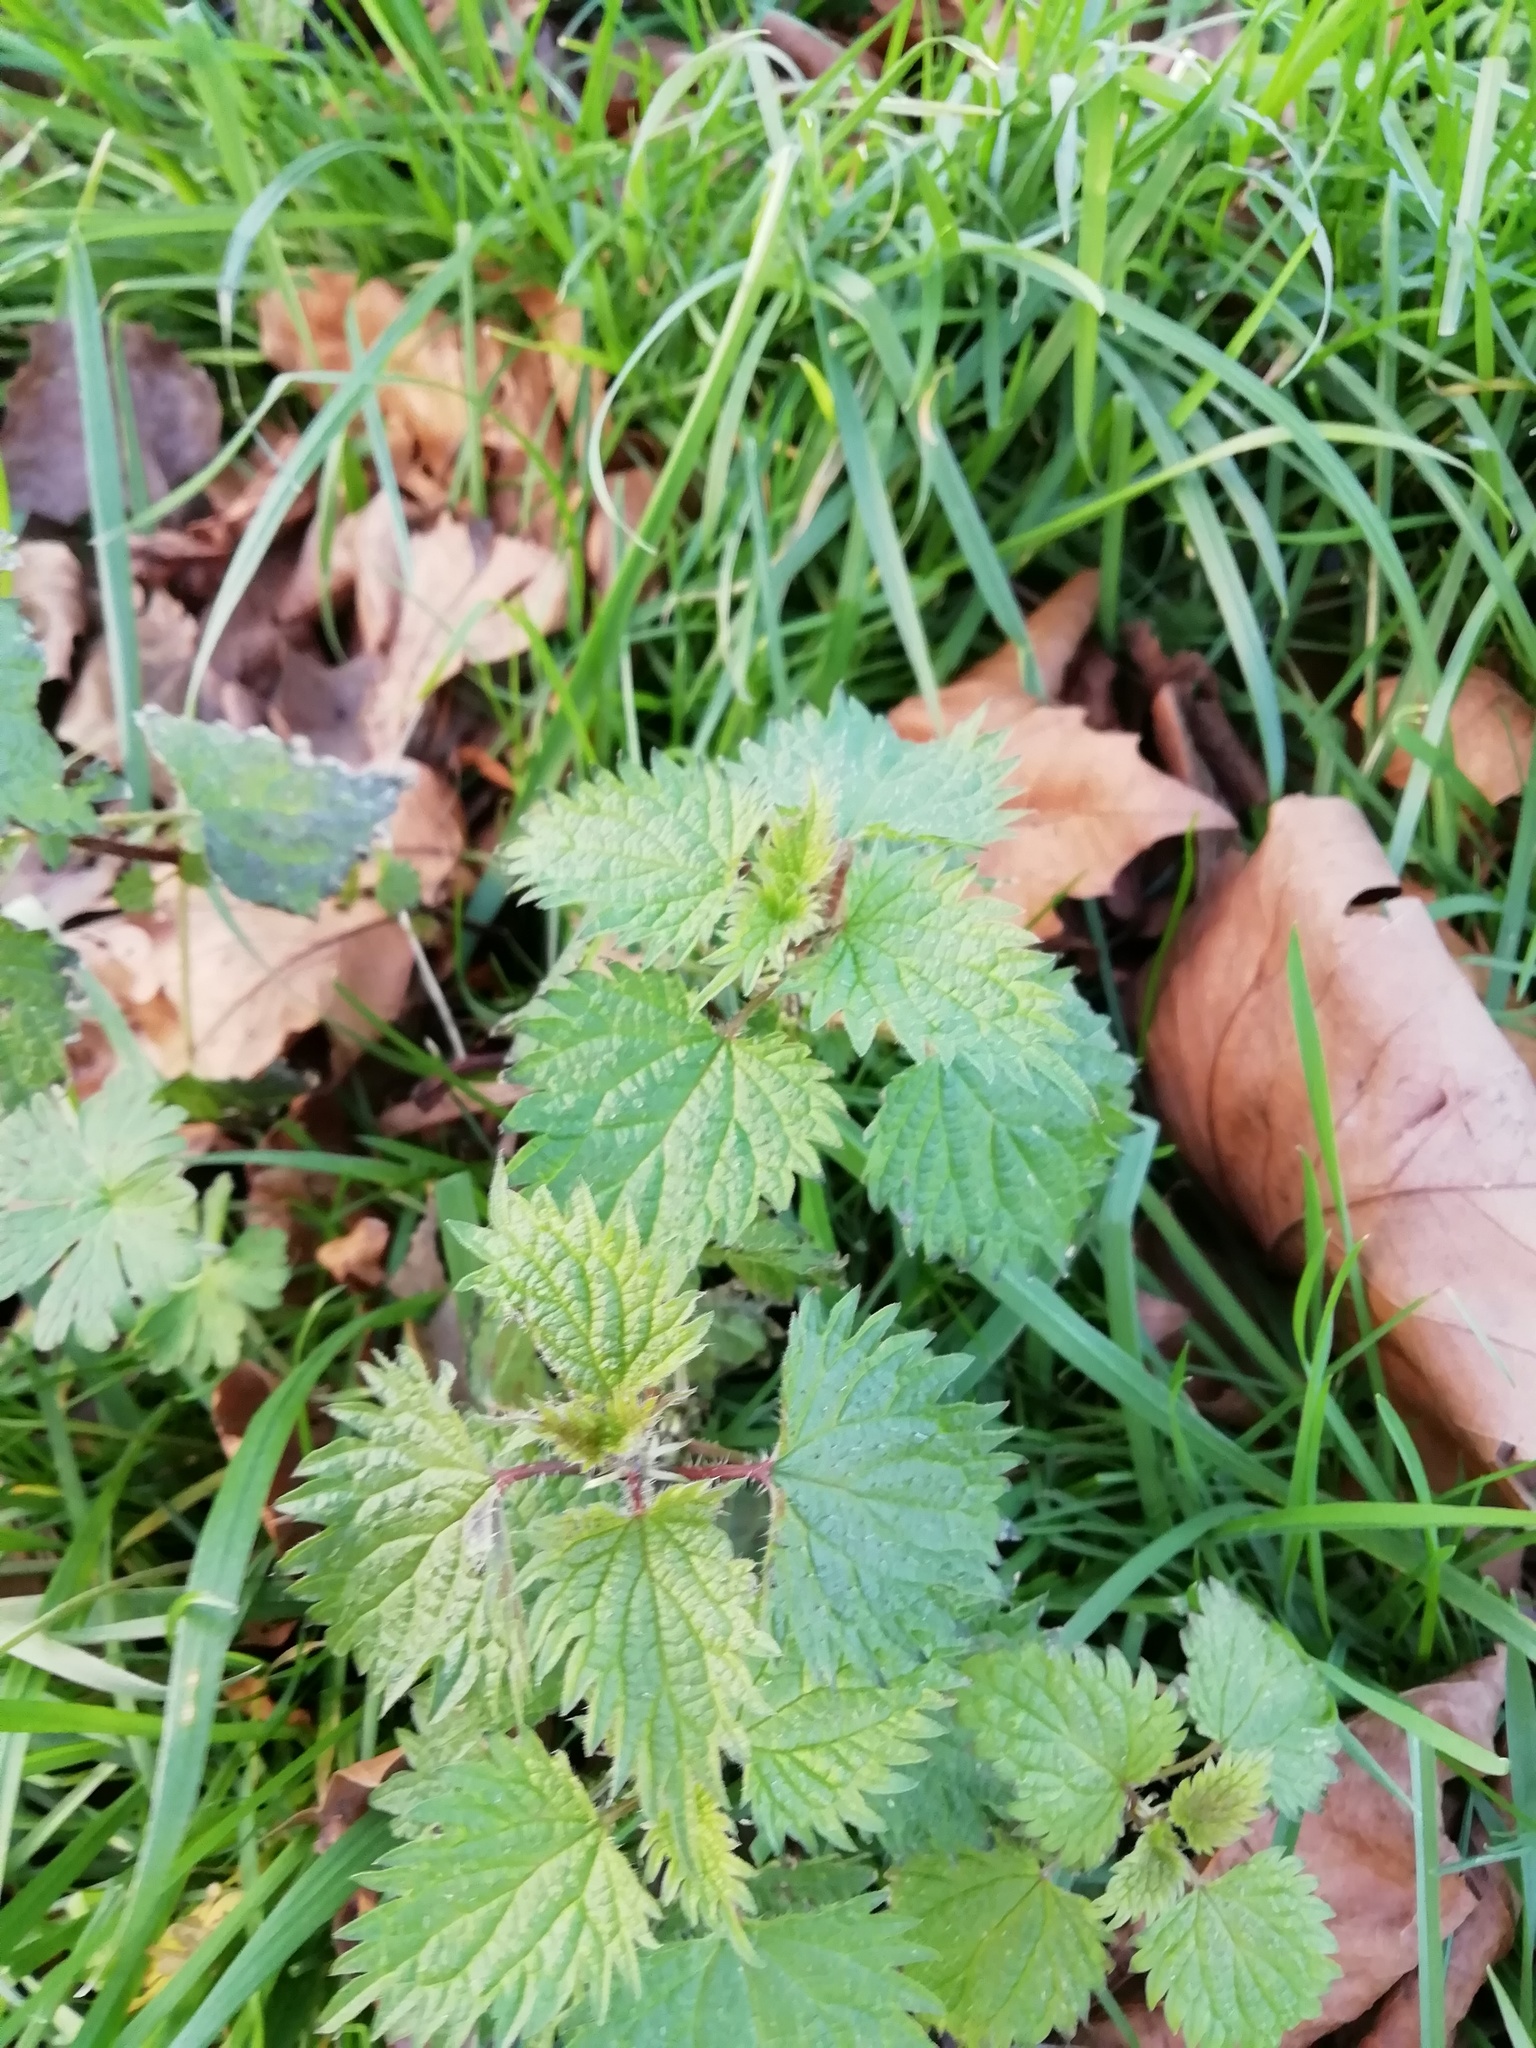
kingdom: Plantae
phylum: Tracheophyta
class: Magnoliopsida
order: Rosales
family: Urticaceae
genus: Urtica
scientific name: Urtica dioica
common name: Common nettle
